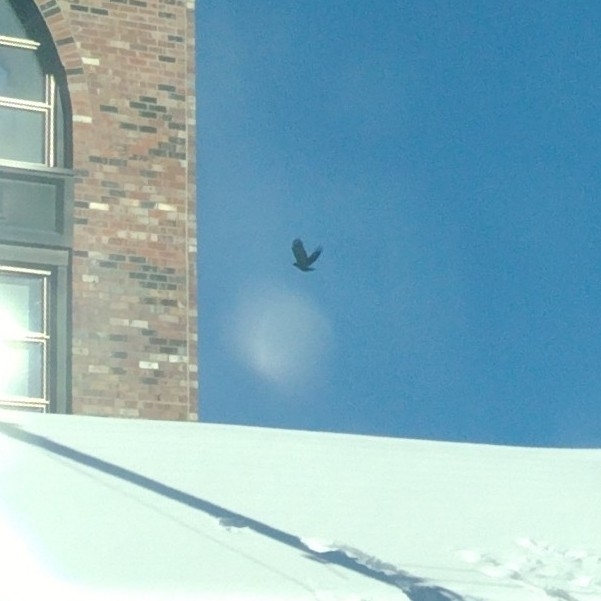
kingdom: Animalia
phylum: Chordata
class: Aves
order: Columbiformes
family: Columbidae
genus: Columba
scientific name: Columba livia
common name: Rock pigeon
